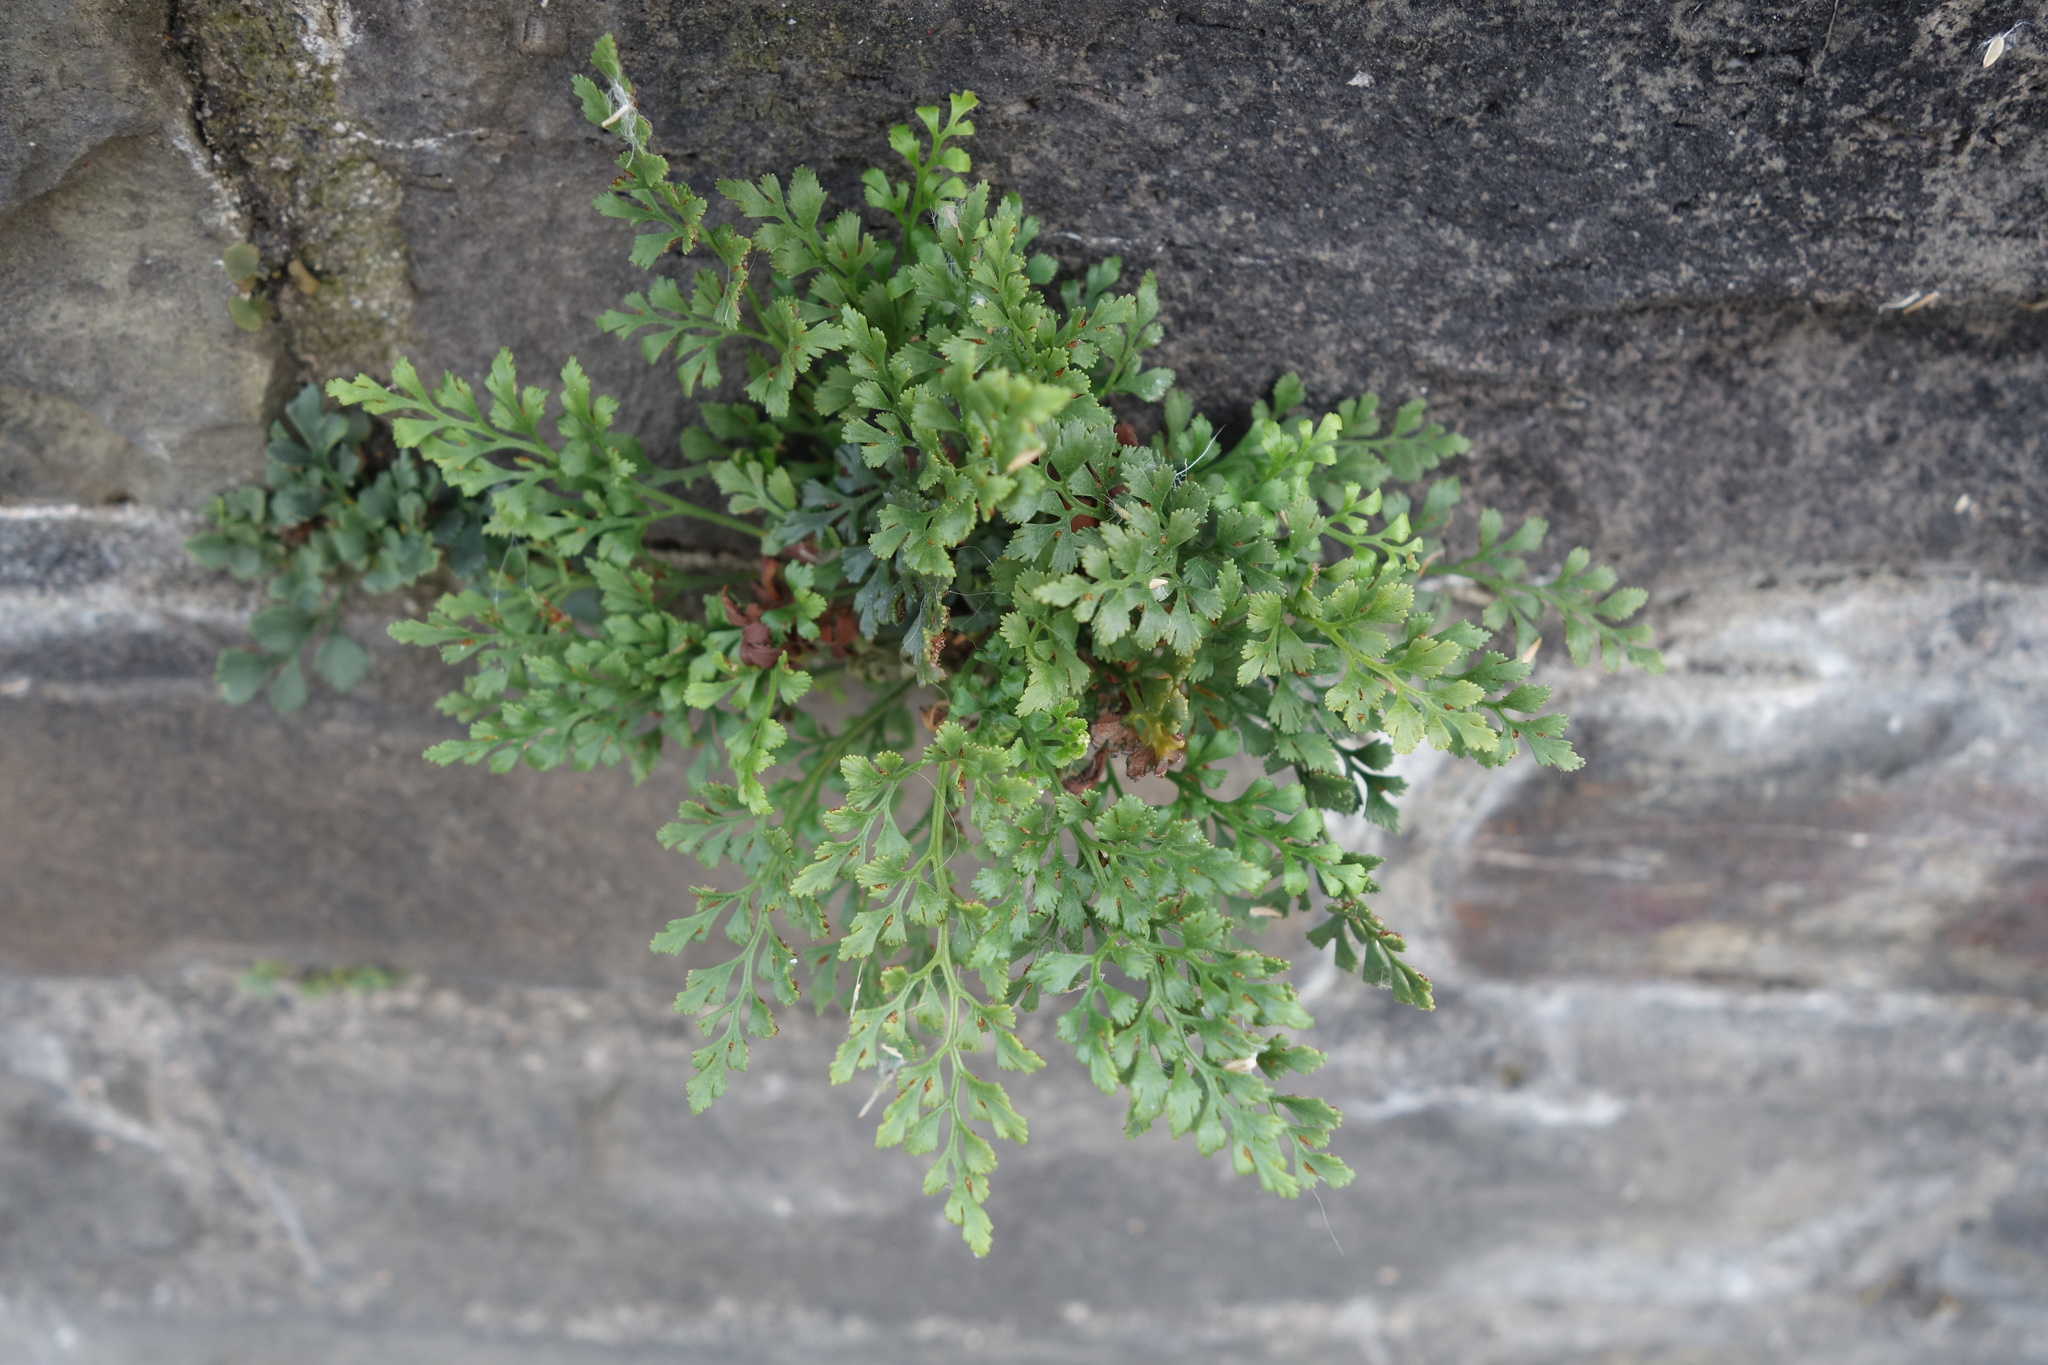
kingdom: Plantae
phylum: Tracheophyta
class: Polypodiopsida
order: Polypodiales
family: Aspleniaceae
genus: Asplenium
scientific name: Asplenium ruta-muraria
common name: Wall-rue
